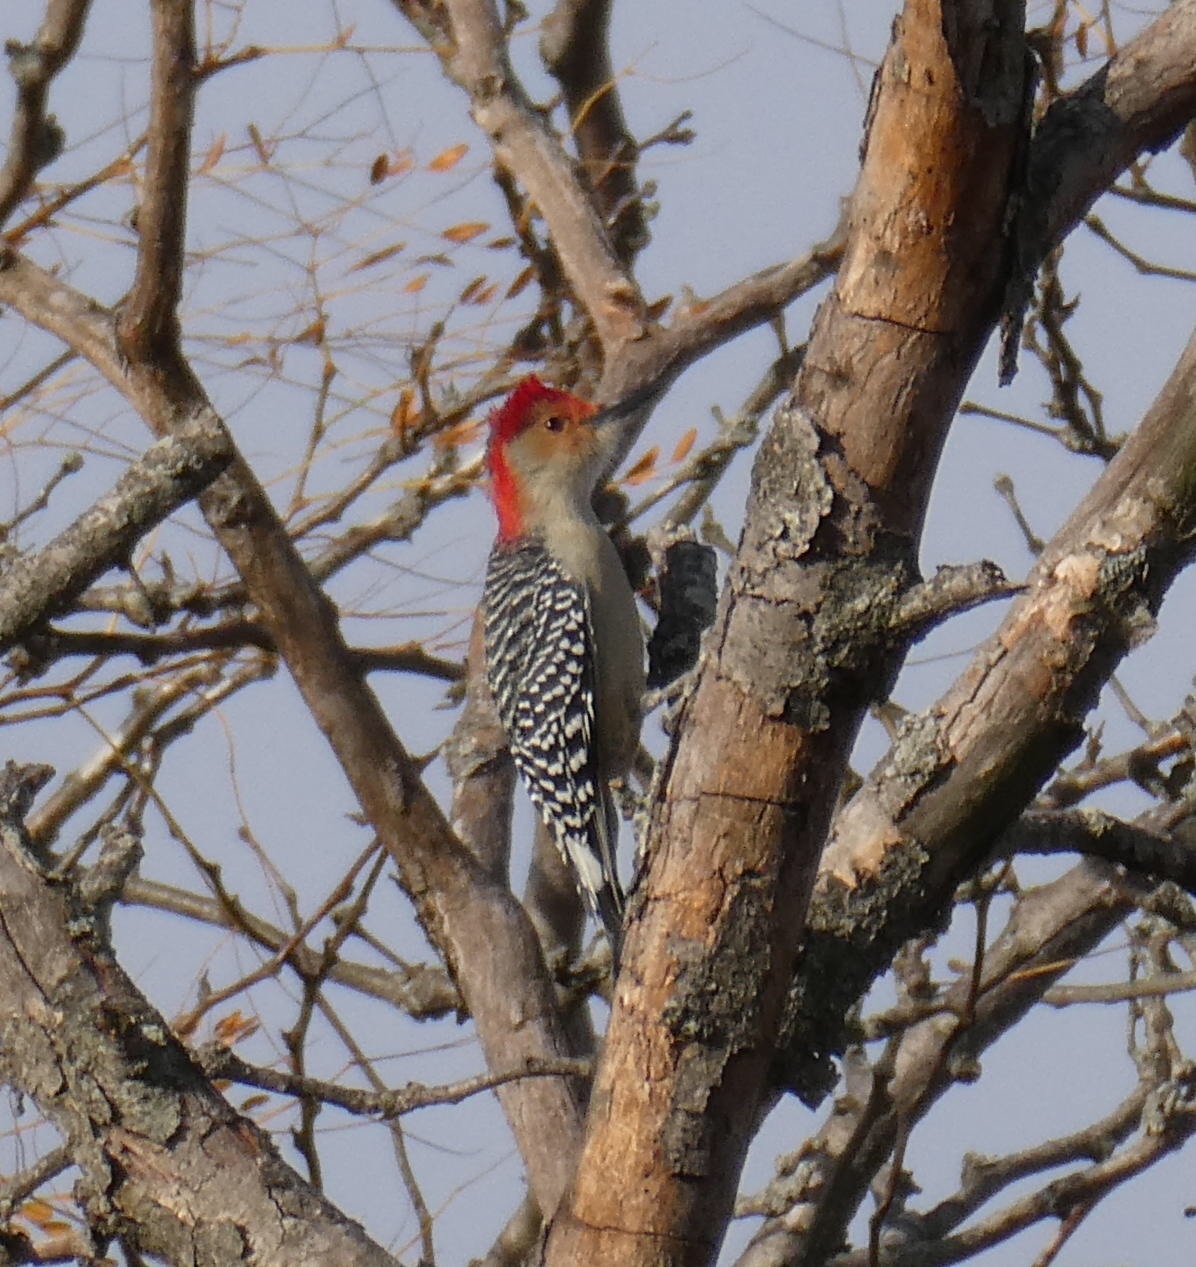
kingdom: Animalia
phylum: Chordata
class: Aves
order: Piciformes
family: Picidae
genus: Melanerpes
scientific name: Melanerpes carolinus
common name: Red-bellied woodpecker
